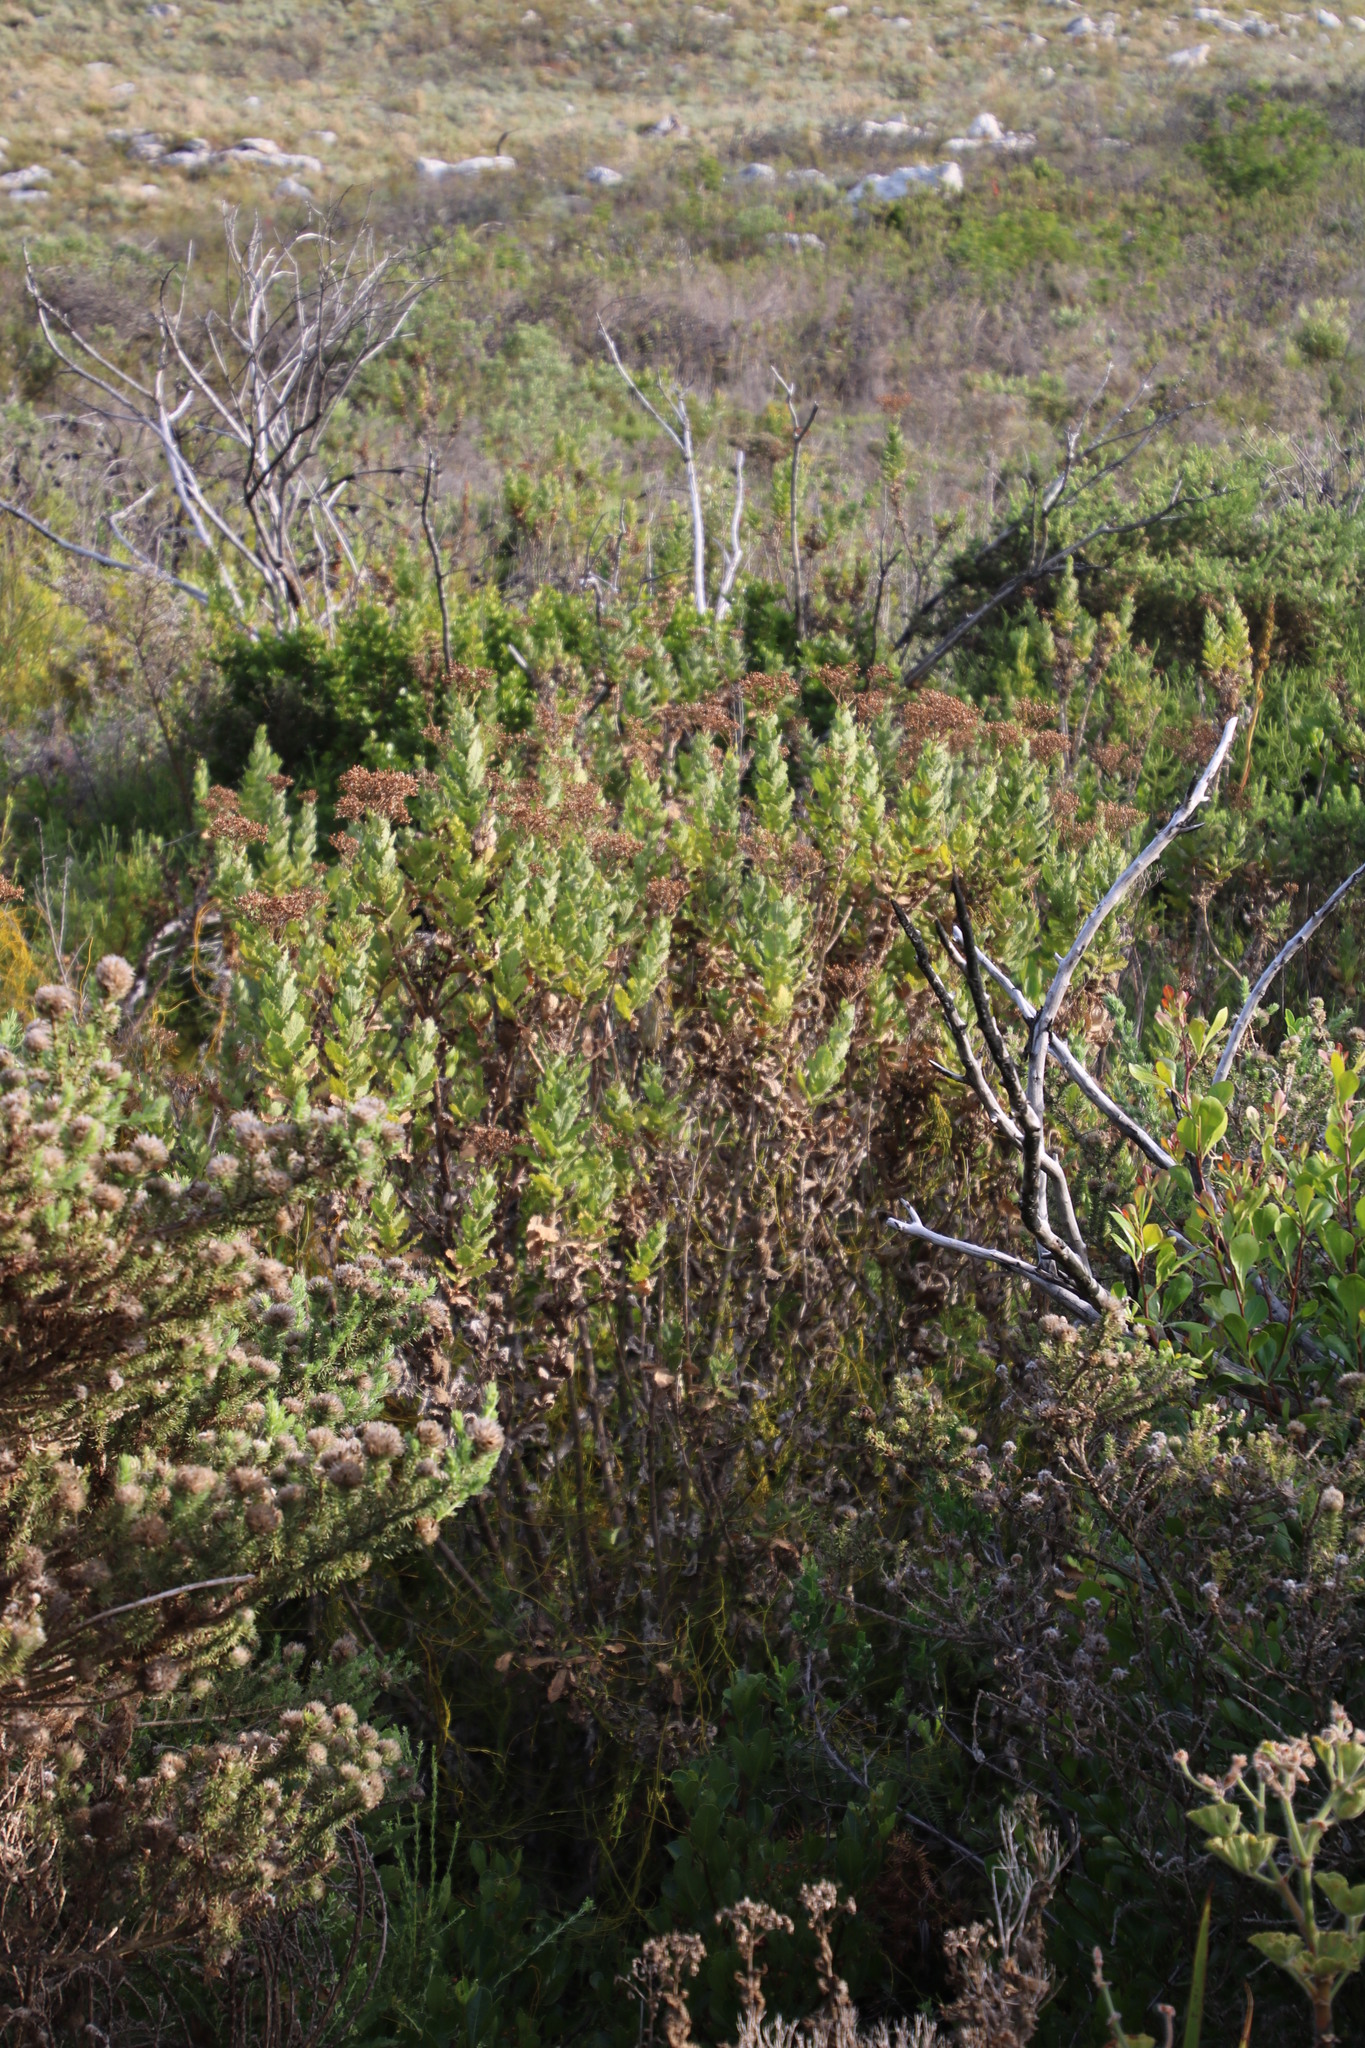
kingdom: Plantae
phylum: Tracheophyta
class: Magnoliopsida
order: Asterales
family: Asteraceae
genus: Senecio
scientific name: Senecio rigidus
